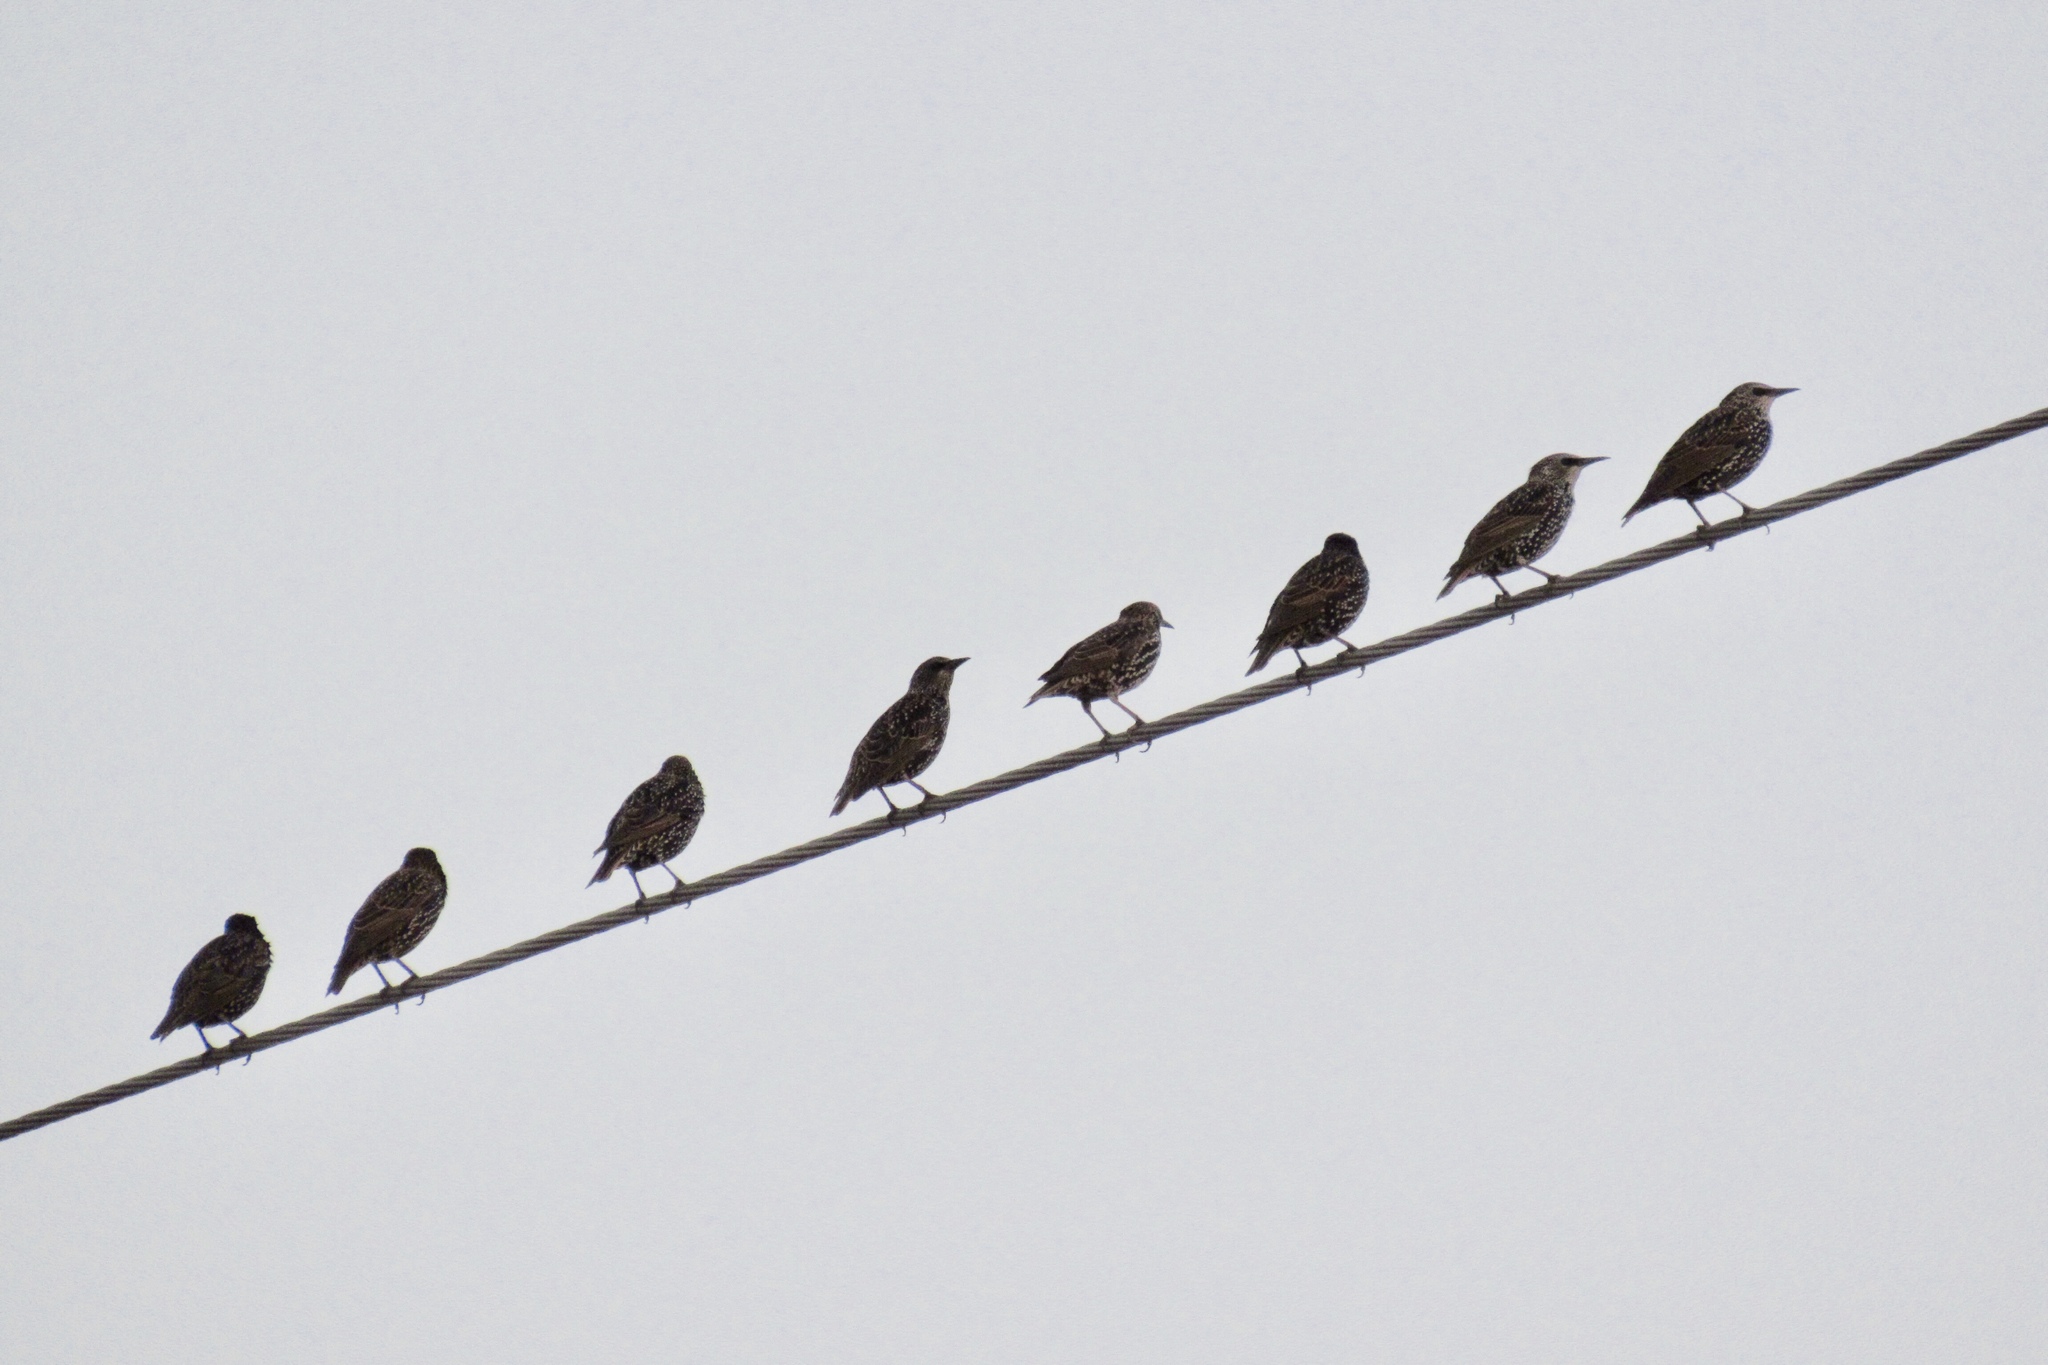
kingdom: Animalia
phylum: Chordata
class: Aves
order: Passeriformes
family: Sturnidae
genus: Sturnus
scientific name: Sturnus vulgaris
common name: Common starling
